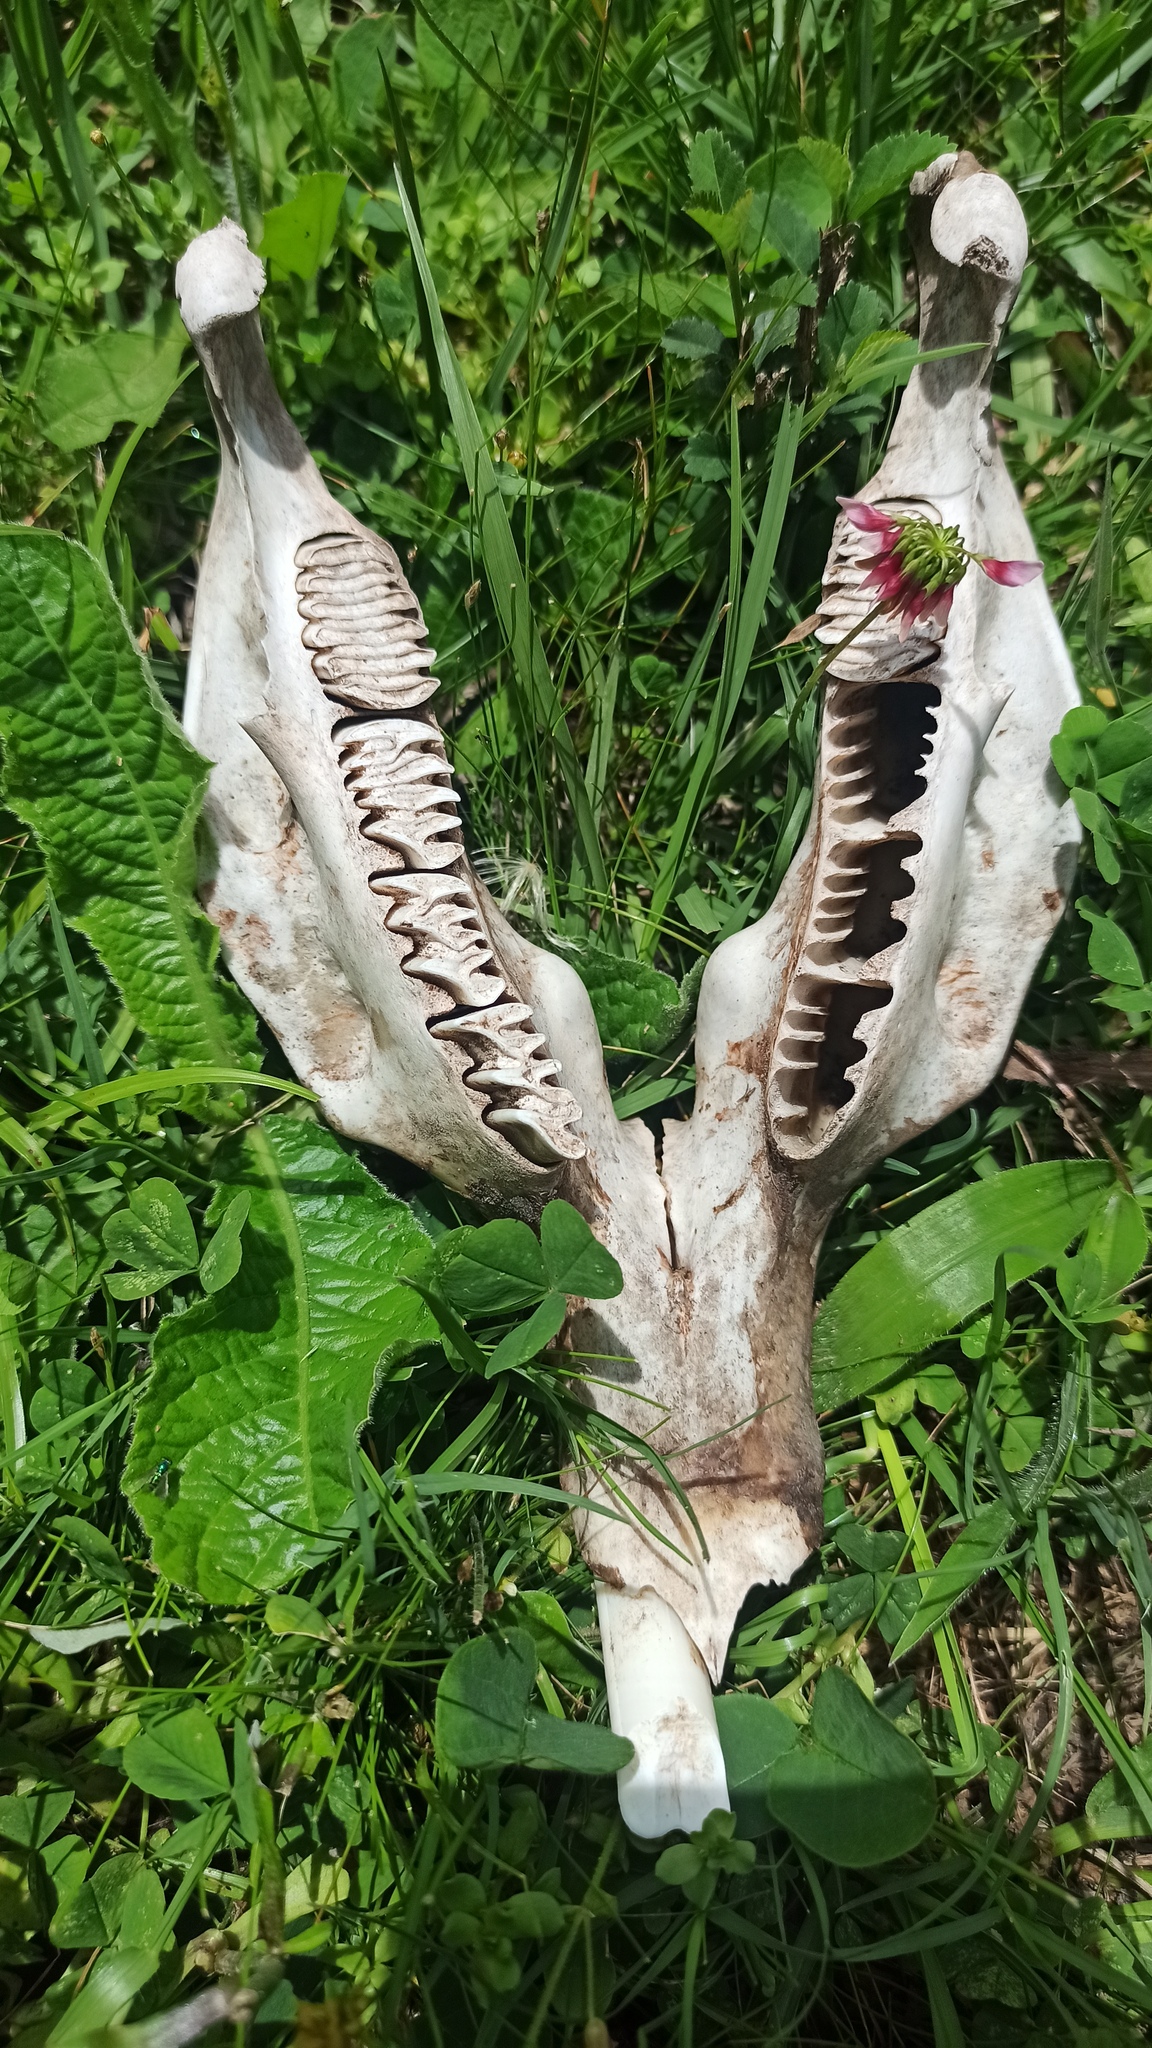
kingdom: Animalia
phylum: Chordata
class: Mammalia
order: Rodentia
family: Caviidae
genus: Hydrochoerus
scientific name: Hydrochoerus hydrochaeris
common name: Capybara
